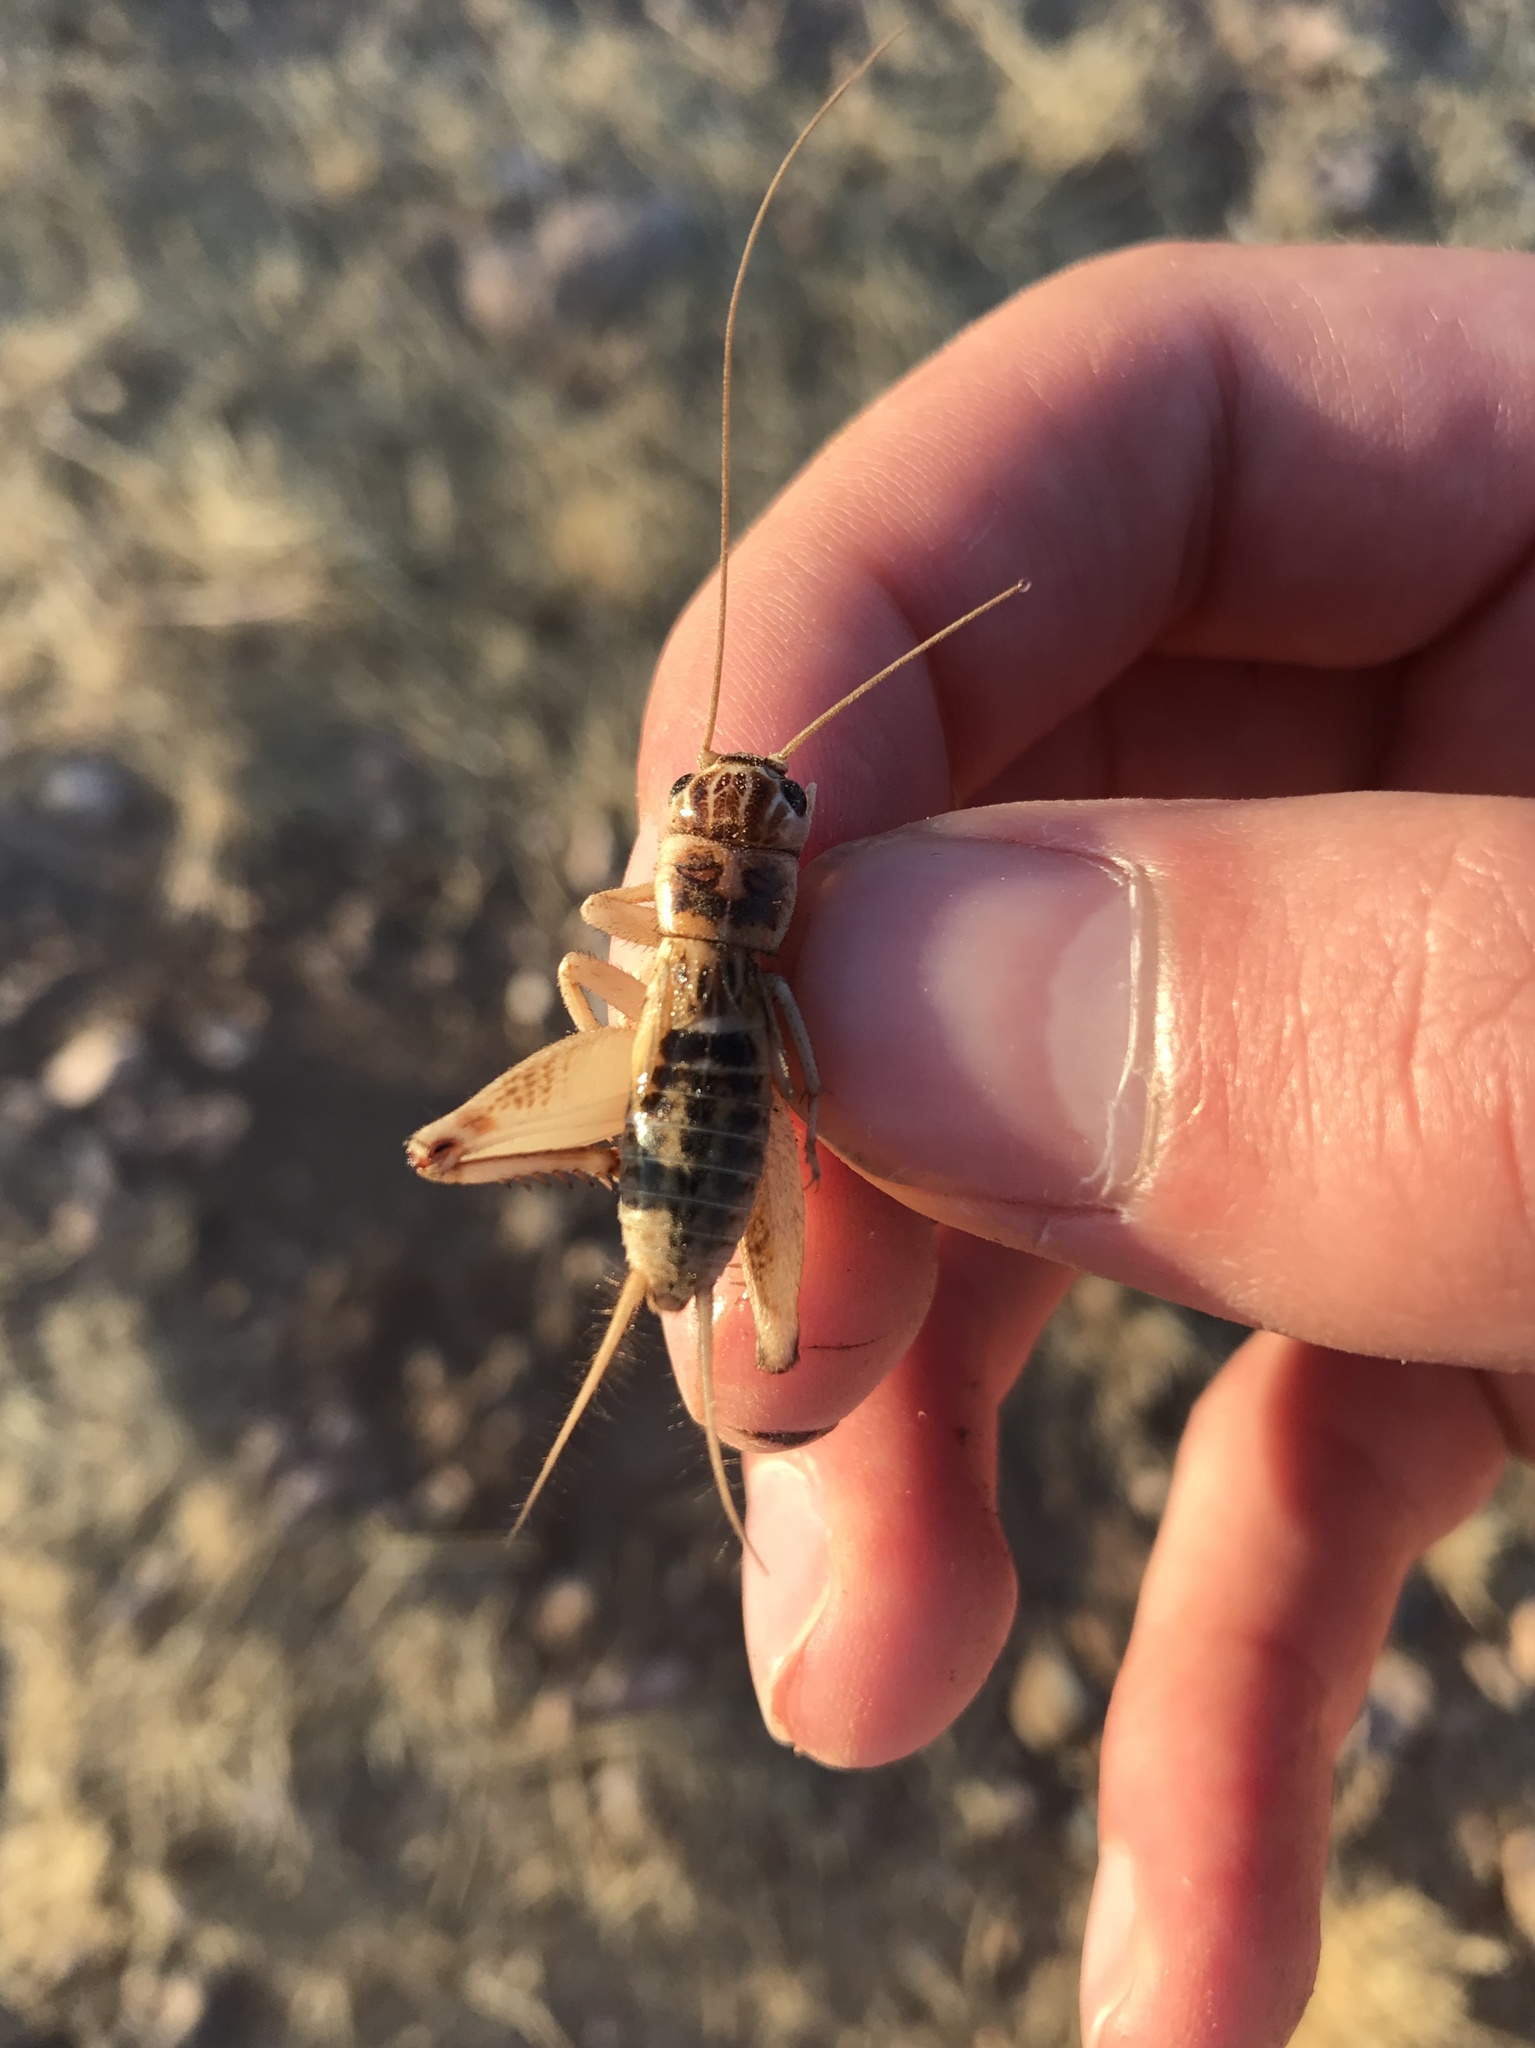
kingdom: Animalia
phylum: Arthropoda
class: Insecta
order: Orthoptera
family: Gryllidae
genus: Gryllodes
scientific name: Gryllodes sigillatus
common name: Tropical house cricket
